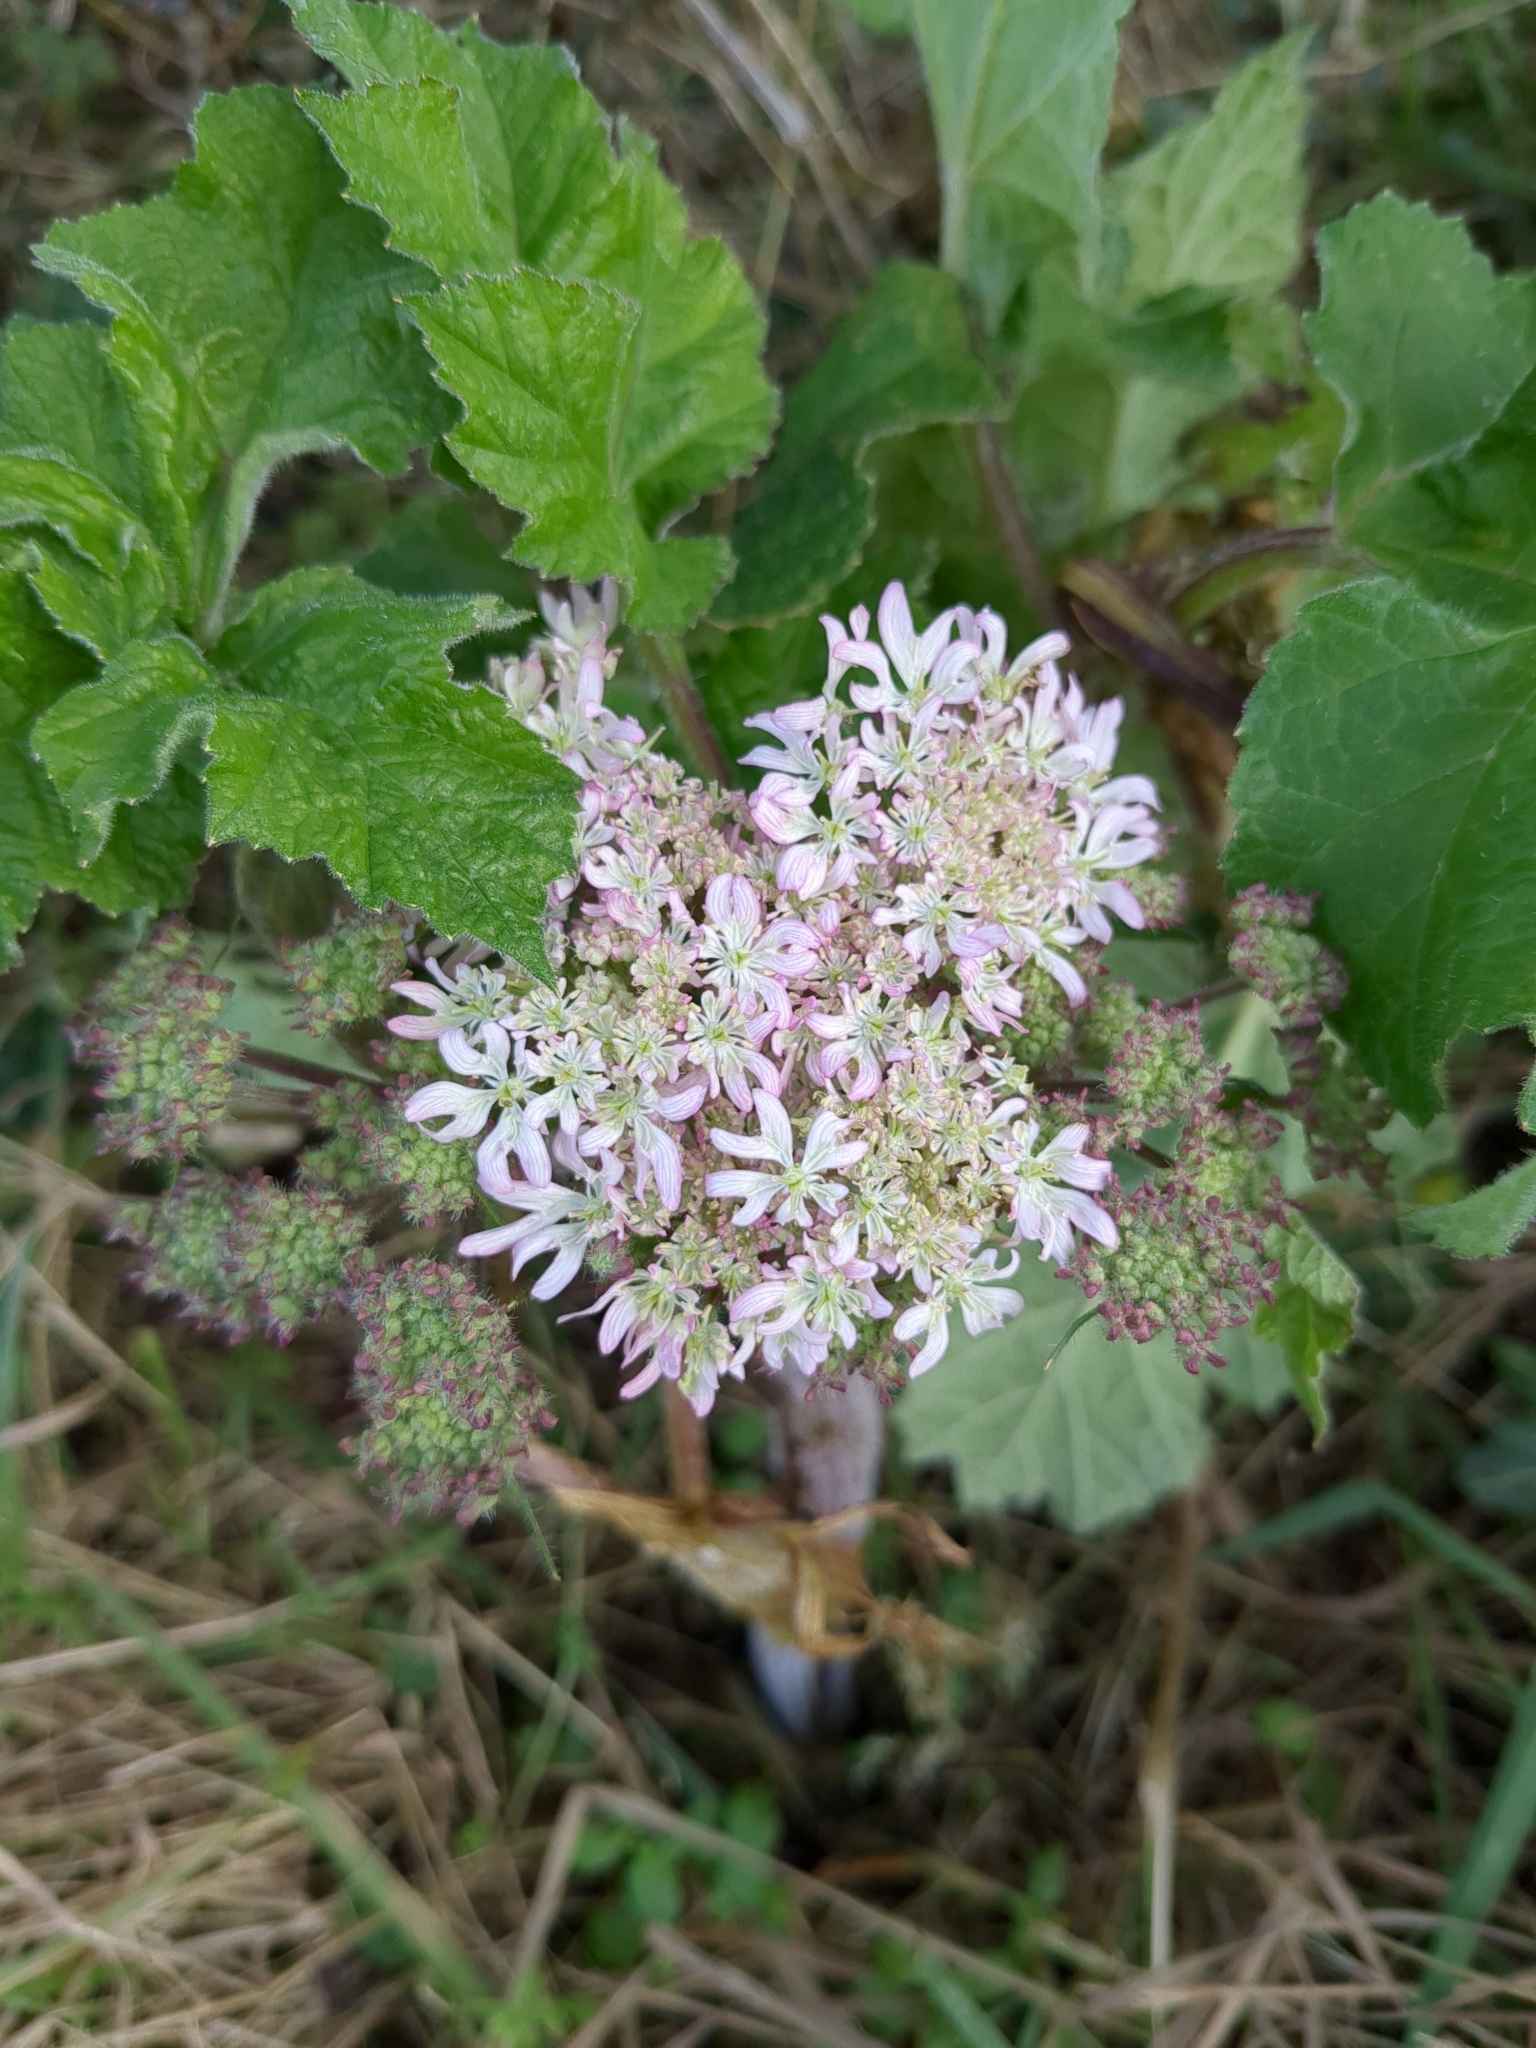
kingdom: Plantae
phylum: Tracheophyta
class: Magnoliopsida
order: Apiales
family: Apiaceae
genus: Heracleum
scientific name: Heracleum sphondylium
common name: Hogweed
